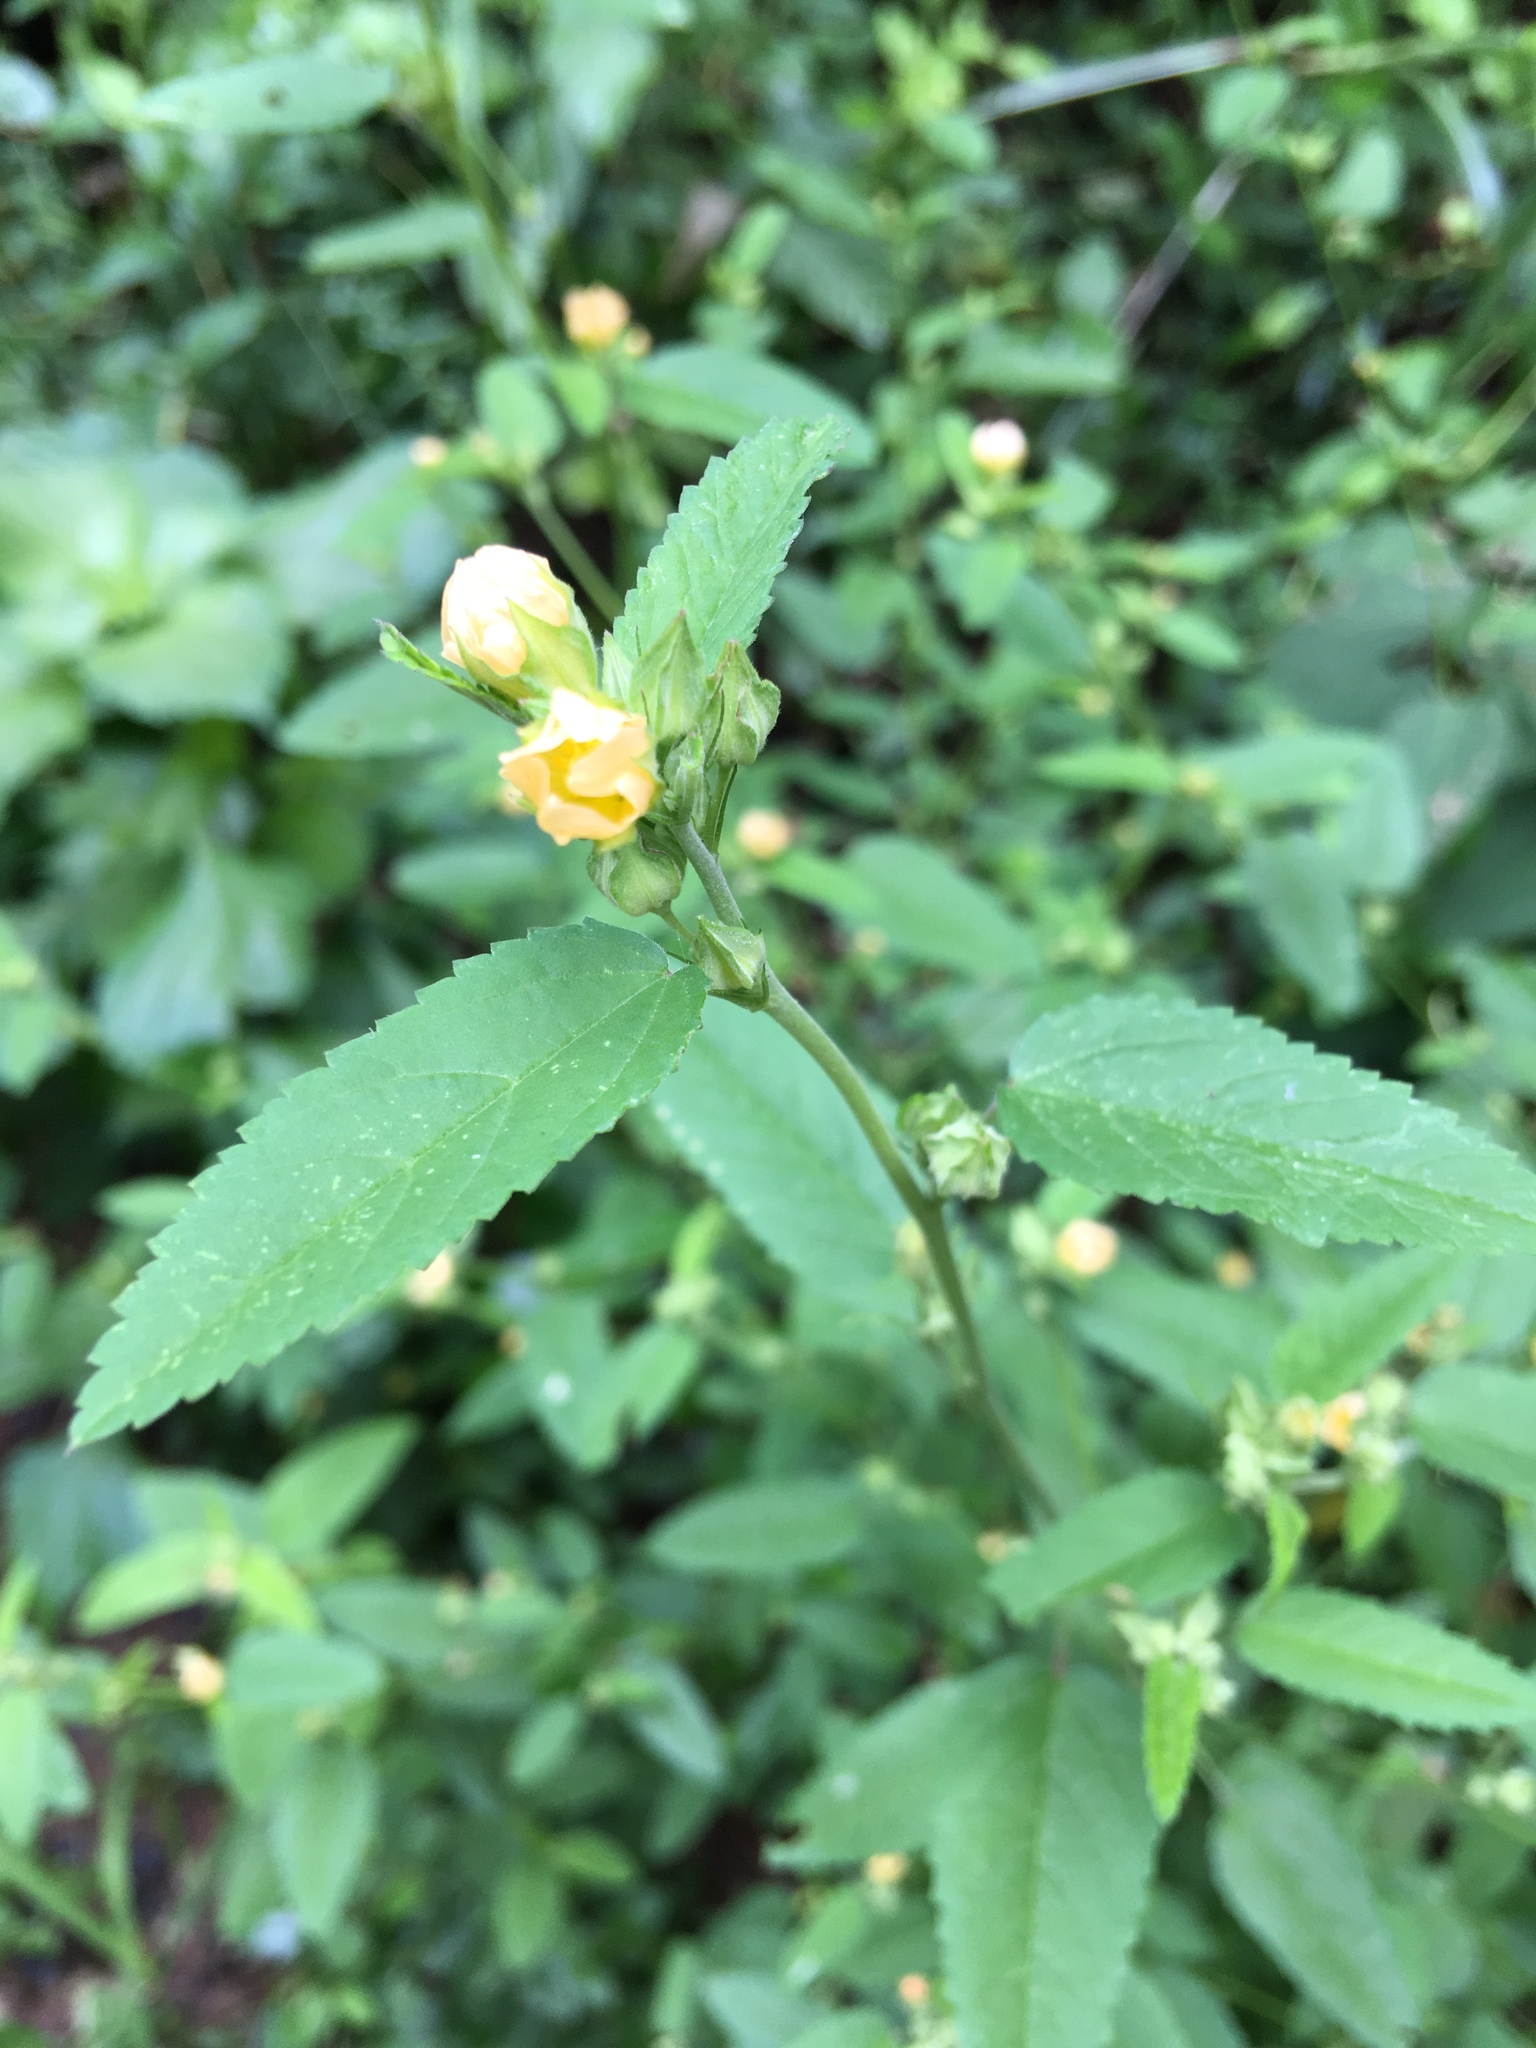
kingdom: Plantae
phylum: Tracheophyta
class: Magnoliopsida
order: Malvales
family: Malvaceae
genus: Sida
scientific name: Sida spinosa
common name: Prickly fanpetals
